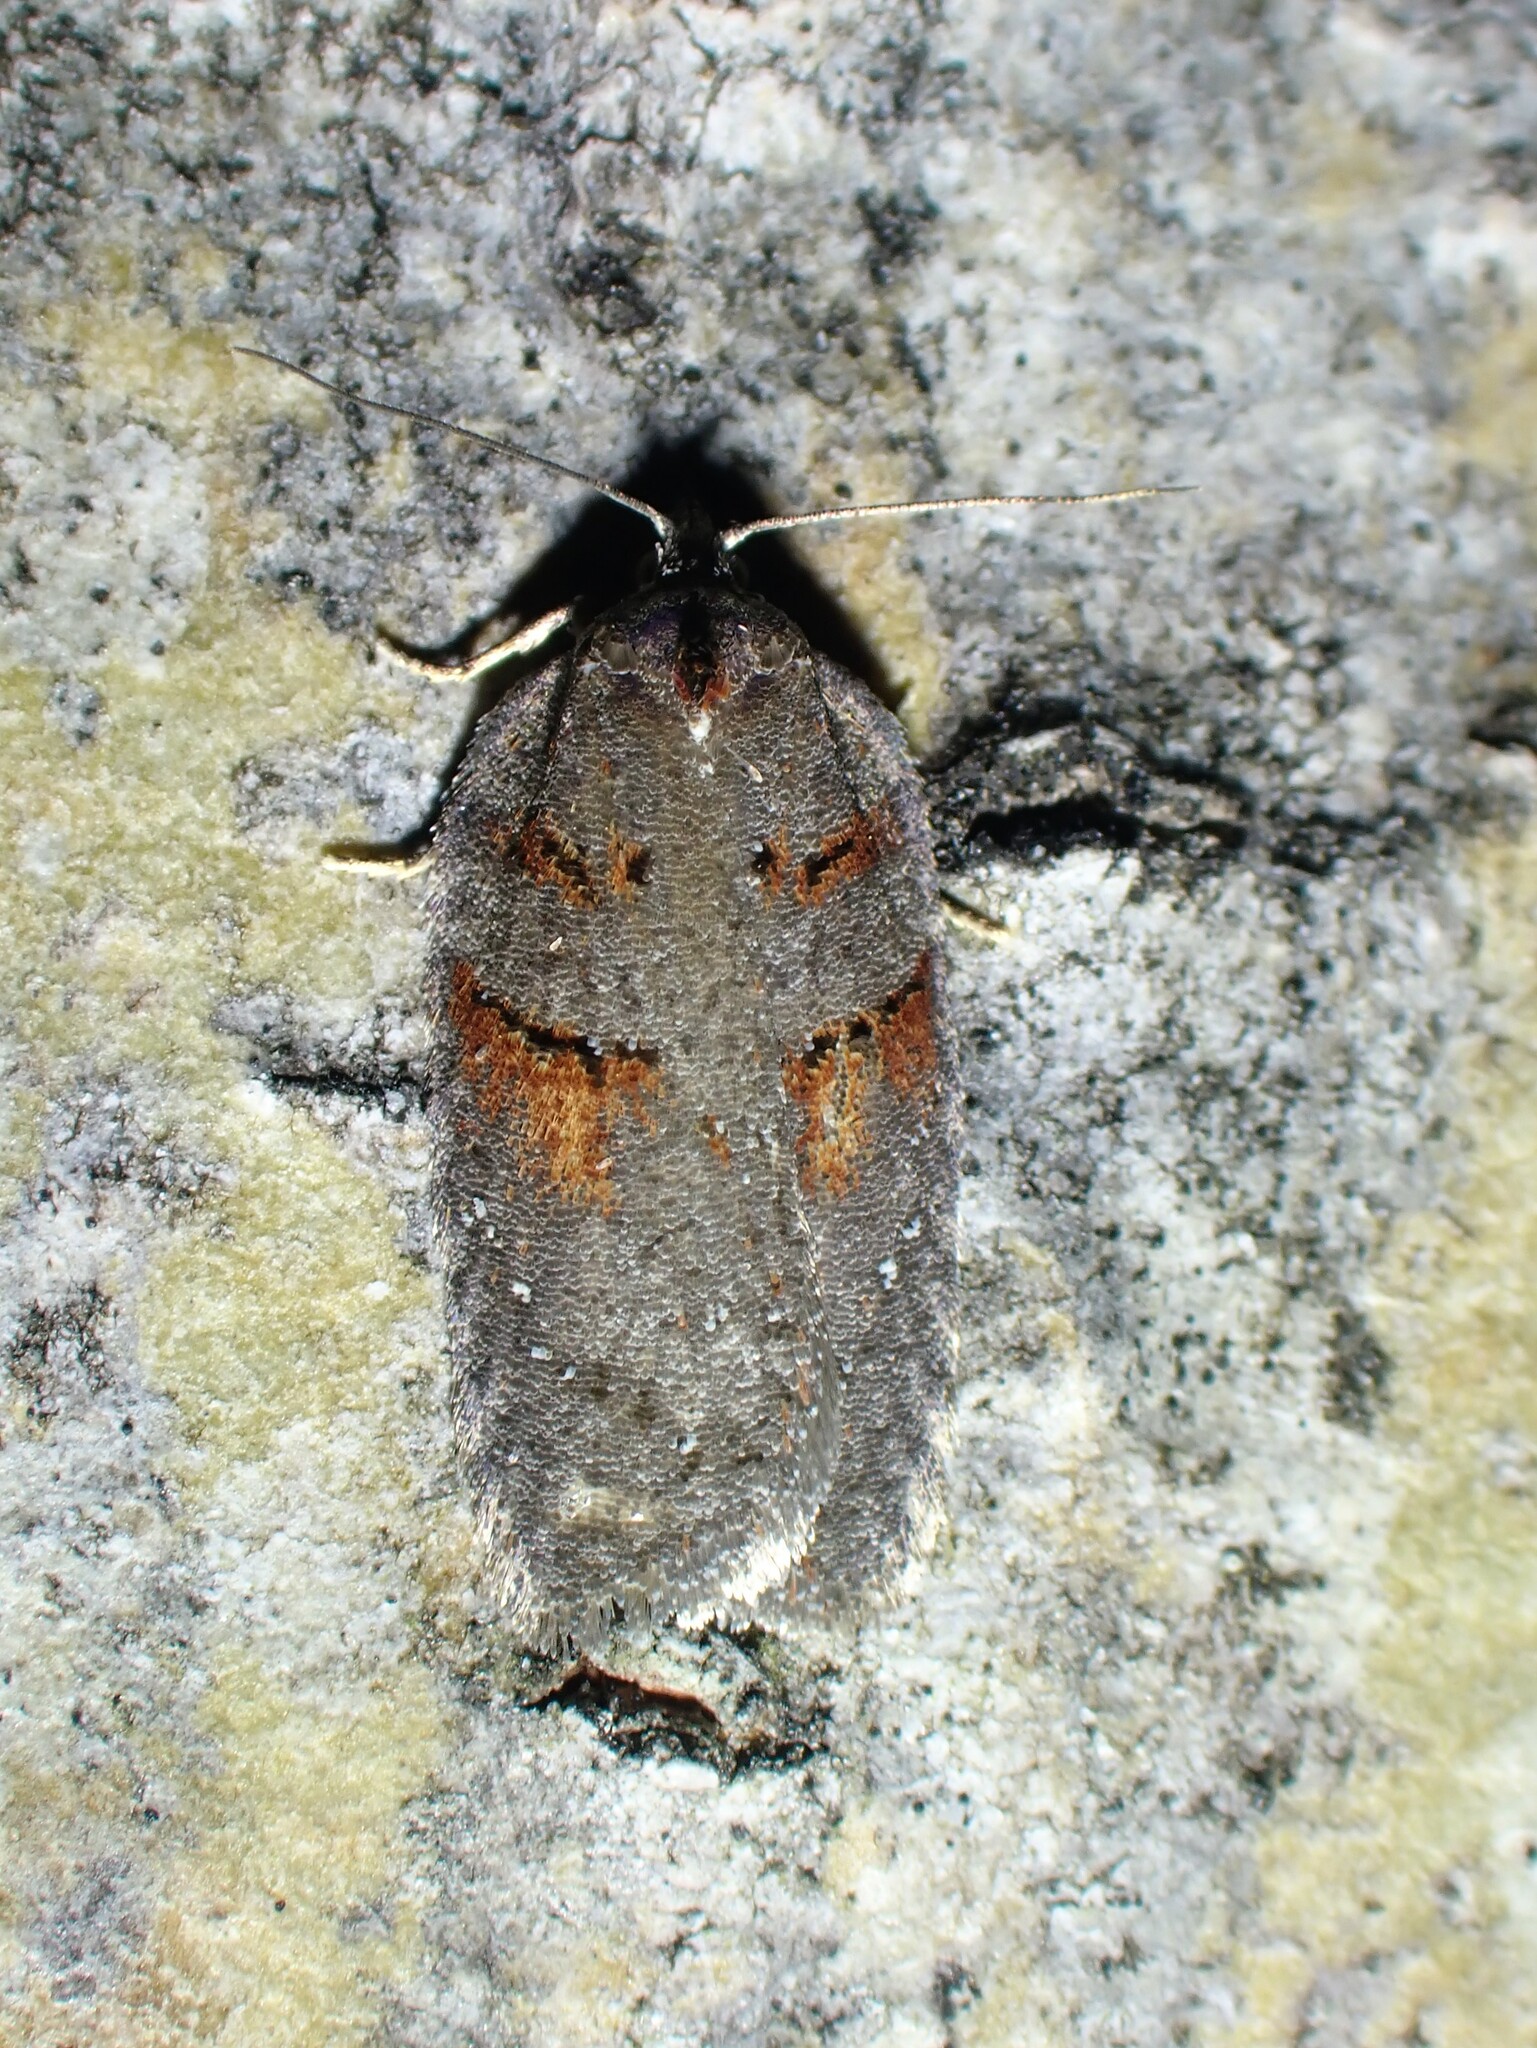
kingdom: Animalia
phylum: Arthropoda
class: Insecta
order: Lepidoptera
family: Tortricidae
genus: Acleris
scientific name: Acleris caliginosana
